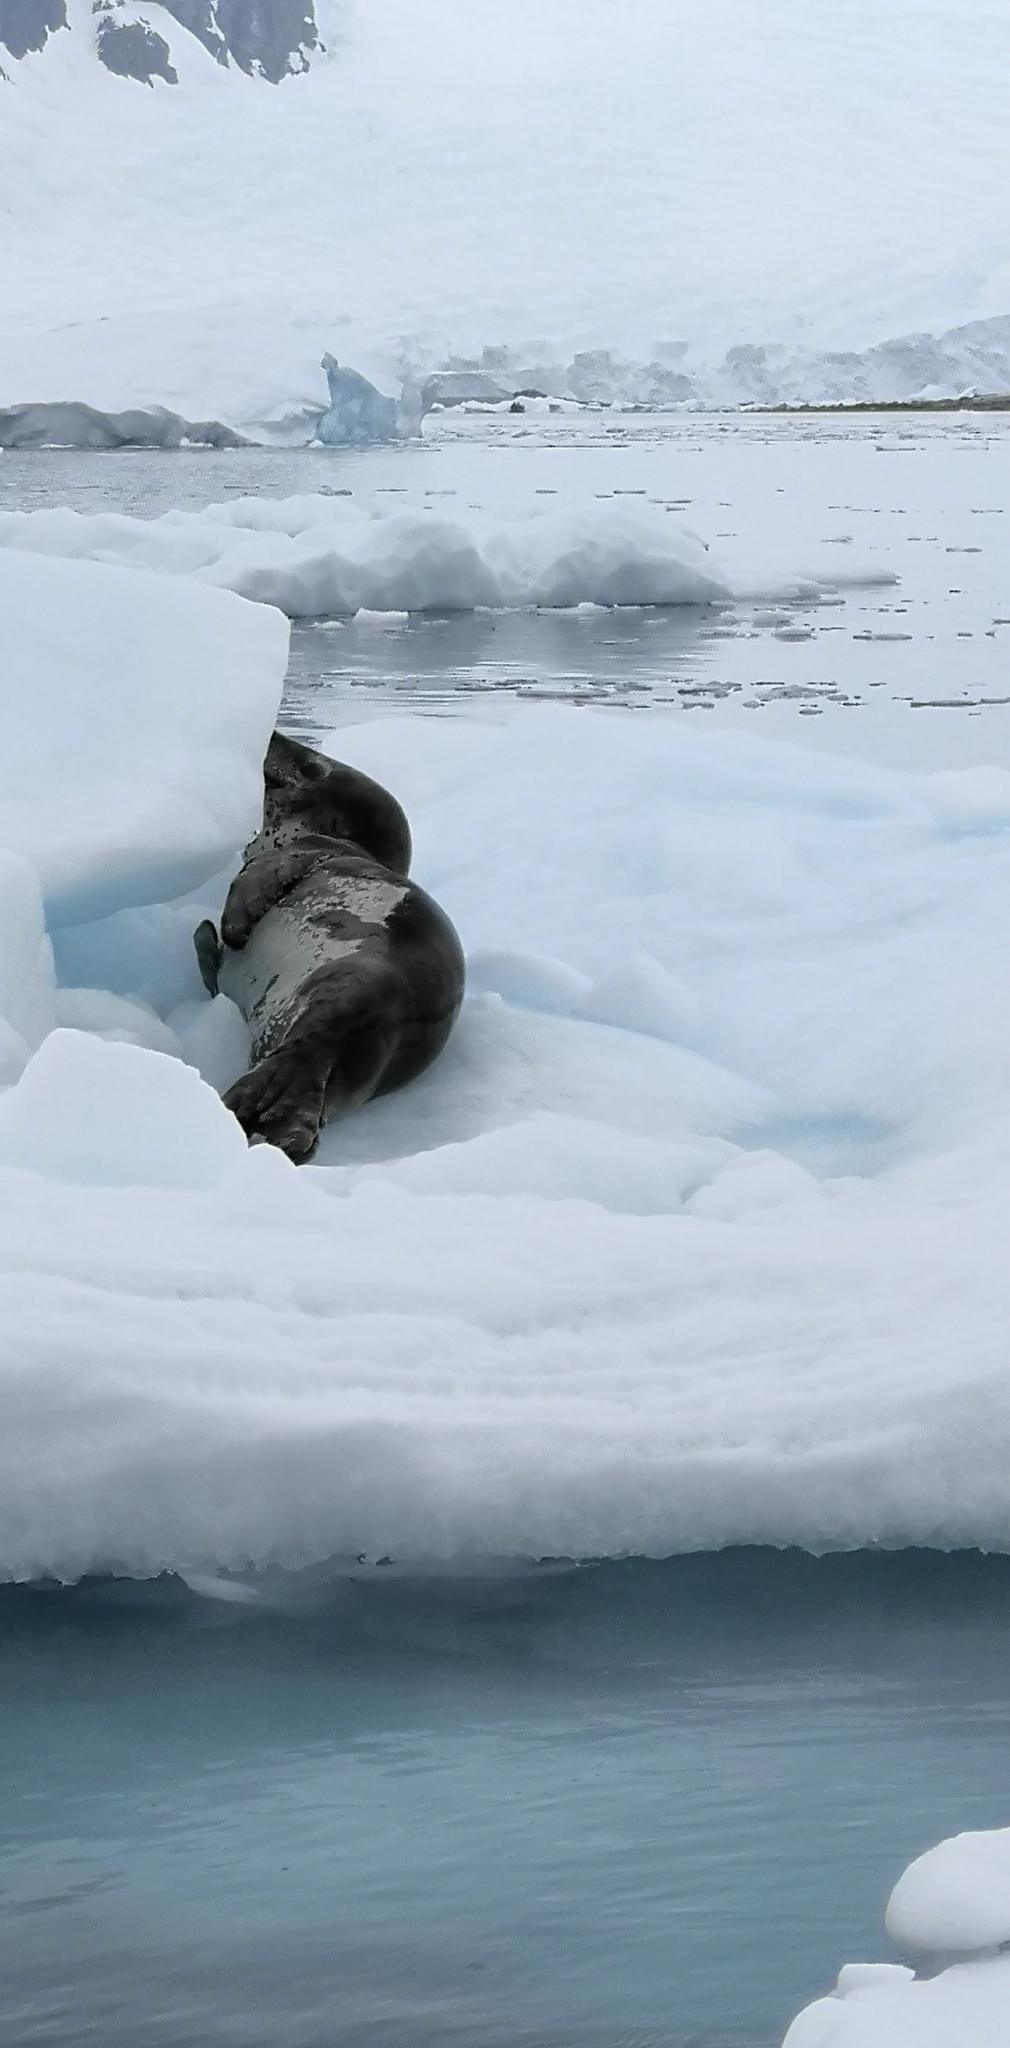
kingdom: Animalia
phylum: Chordata
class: Mammalia
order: Carnivora
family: Phocidae
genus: Hydrurga
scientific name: Hydrurga leptonyx
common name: Leopard seal
